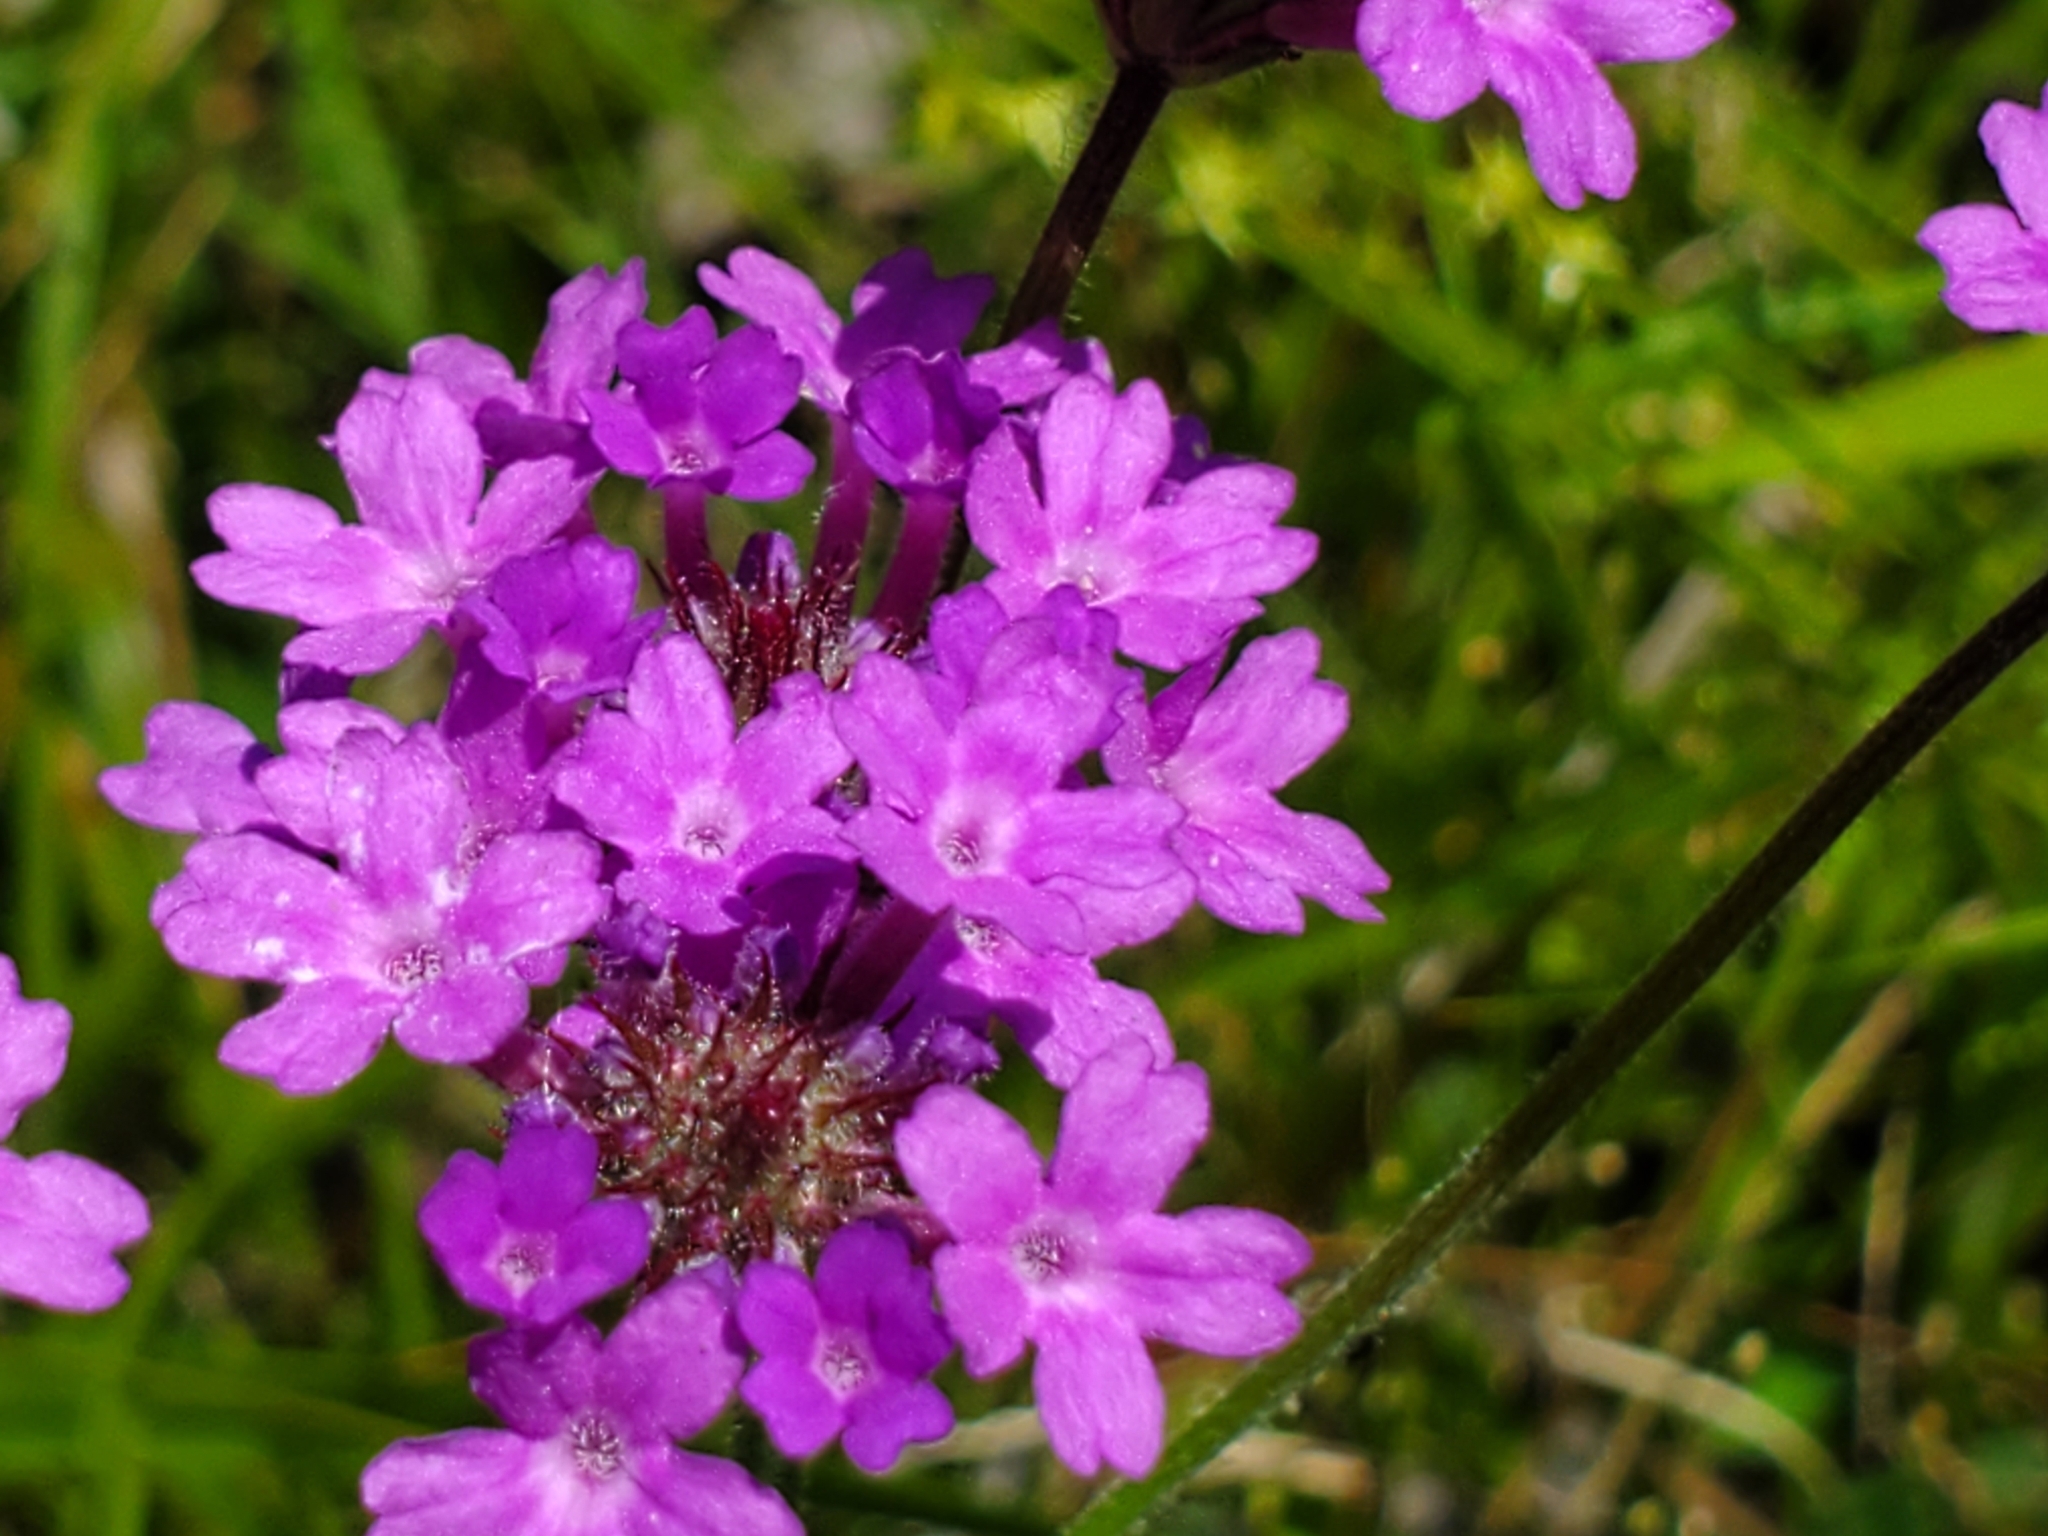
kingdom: Plantae
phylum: Tracheophyta
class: Magnoliopsida
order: Lamiales
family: Verbenaceae
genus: Verbena
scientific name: Verbena rigida
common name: Slender vervain
